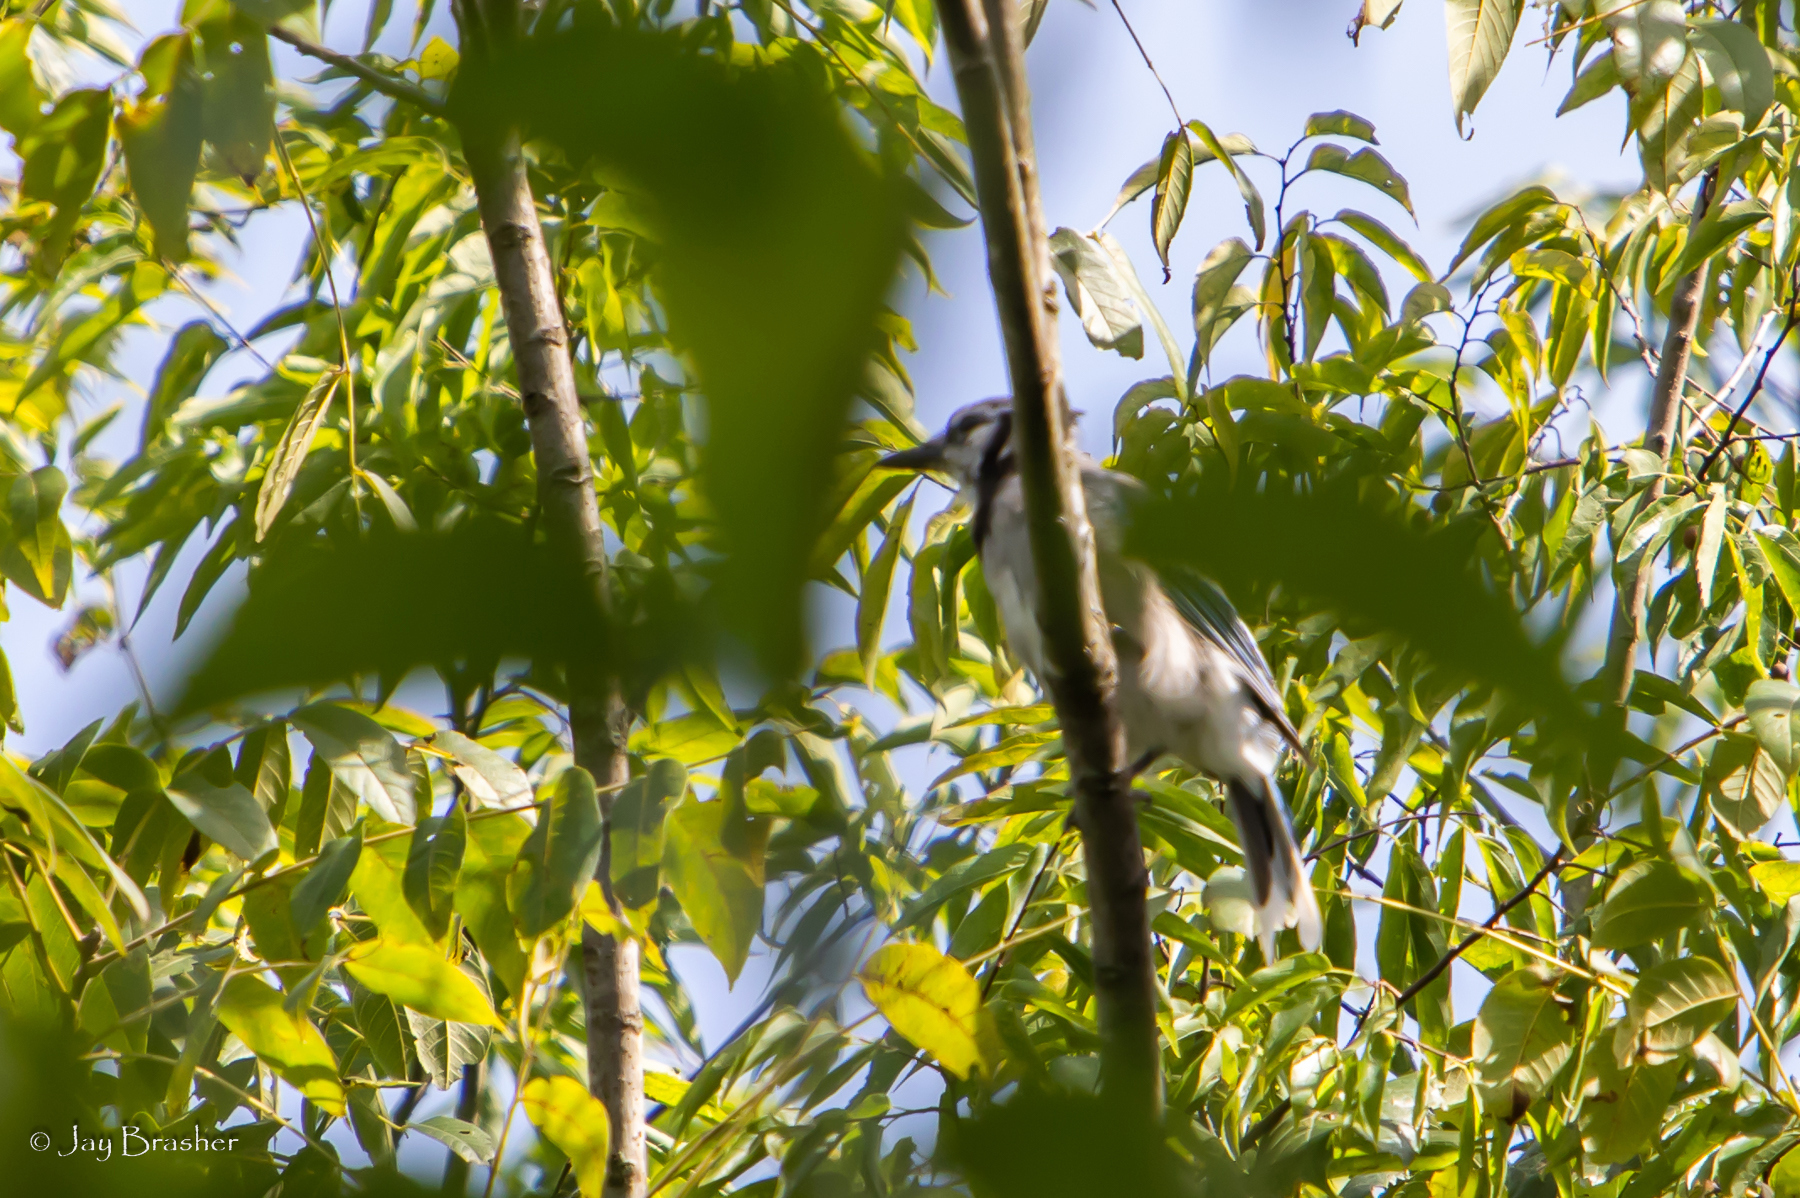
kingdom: Animalia
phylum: Chordata
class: Aves
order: Passeriformes
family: Corvidae
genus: Cyanocitta
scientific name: Cyanocitta cristata
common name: Blue jay
